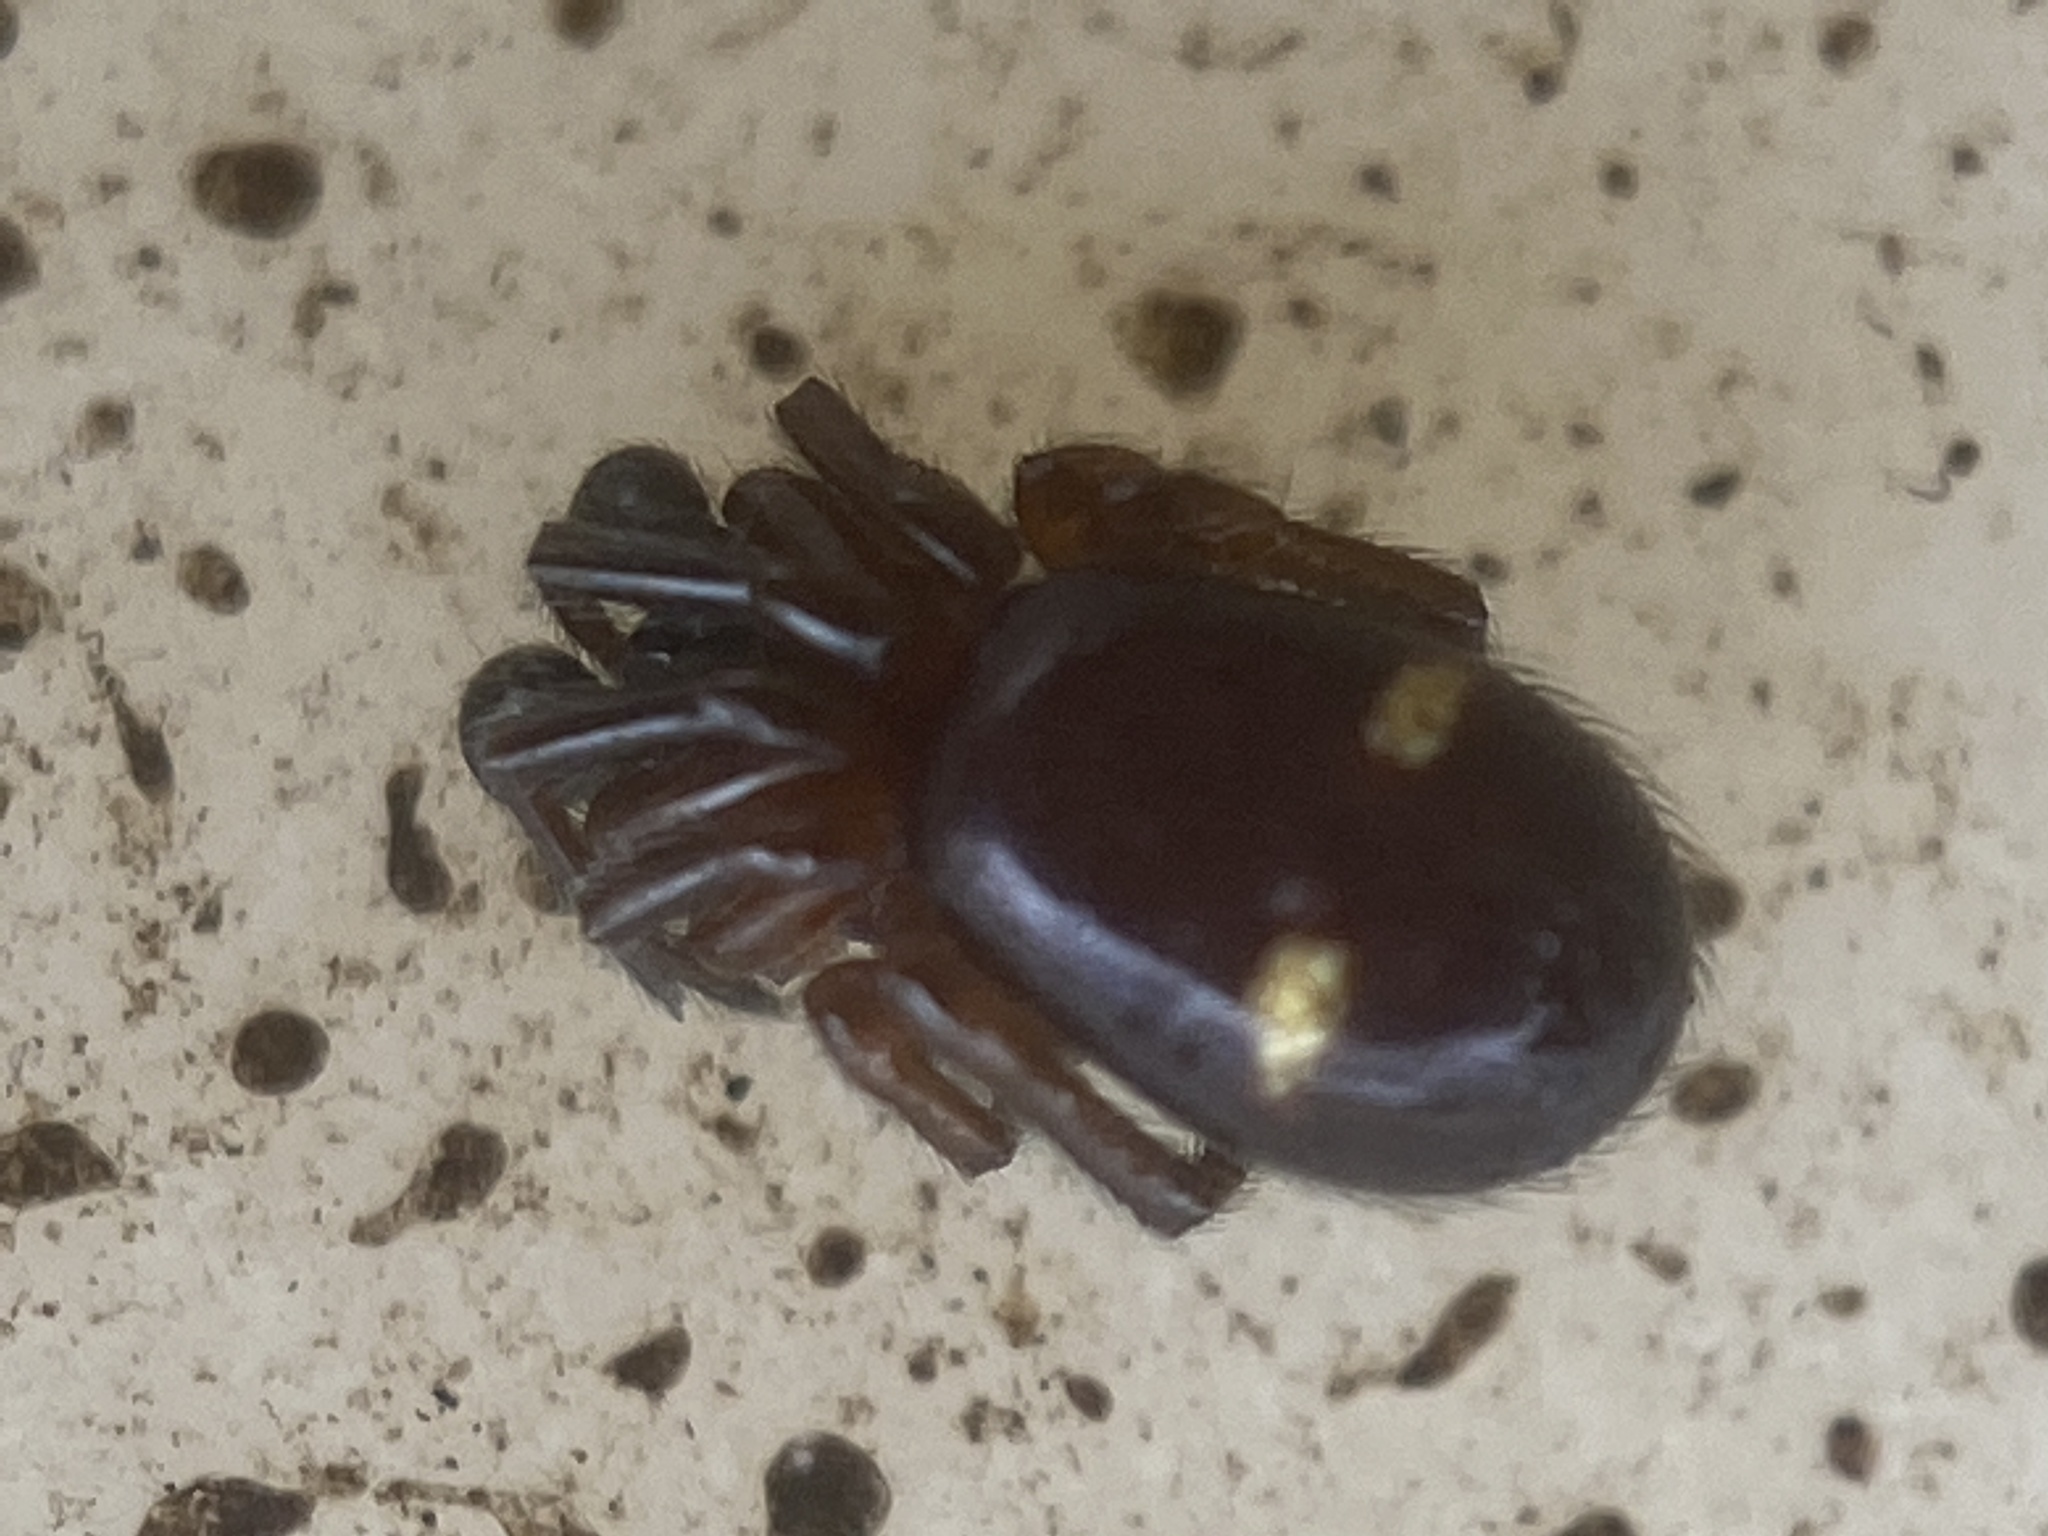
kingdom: Animalia
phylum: Arthropoda
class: Arachnida
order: Araneae
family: Theridiidae
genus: Asagena
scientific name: Asagena americana
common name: Two-spotted cobweb spider
